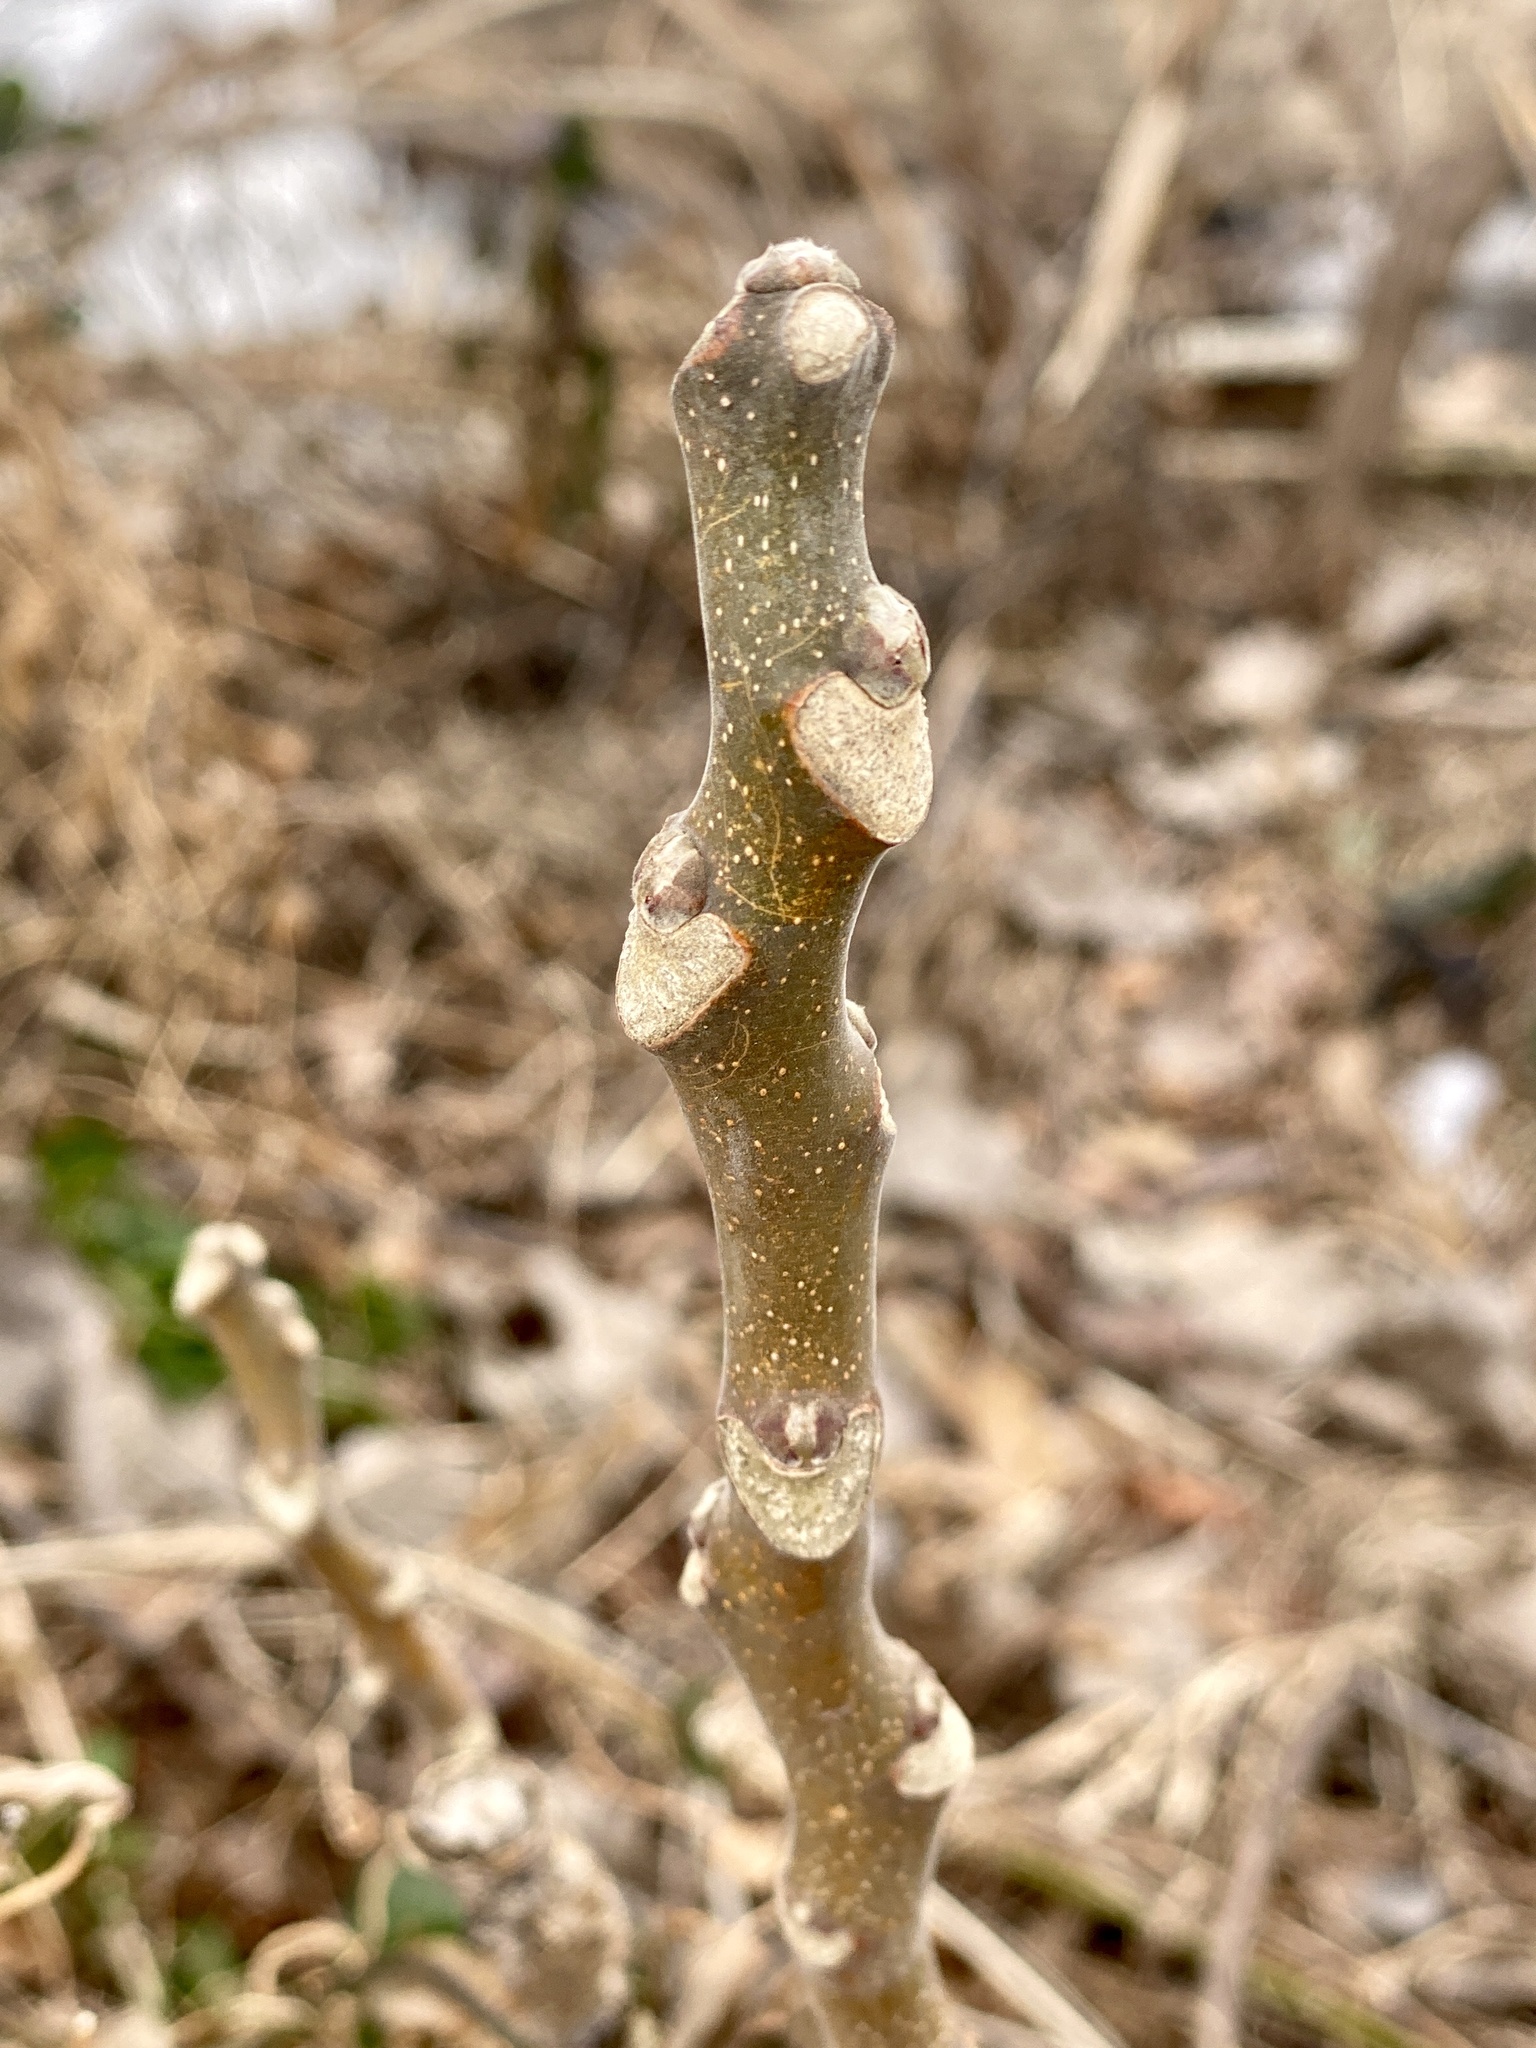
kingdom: Plantae
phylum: Tracheophyta
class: Magnoliopsida
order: Sapindales
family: Simaroubaceae
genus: Ailanthus
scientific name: Ailanthus altissima
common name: Tree-of-heaven
